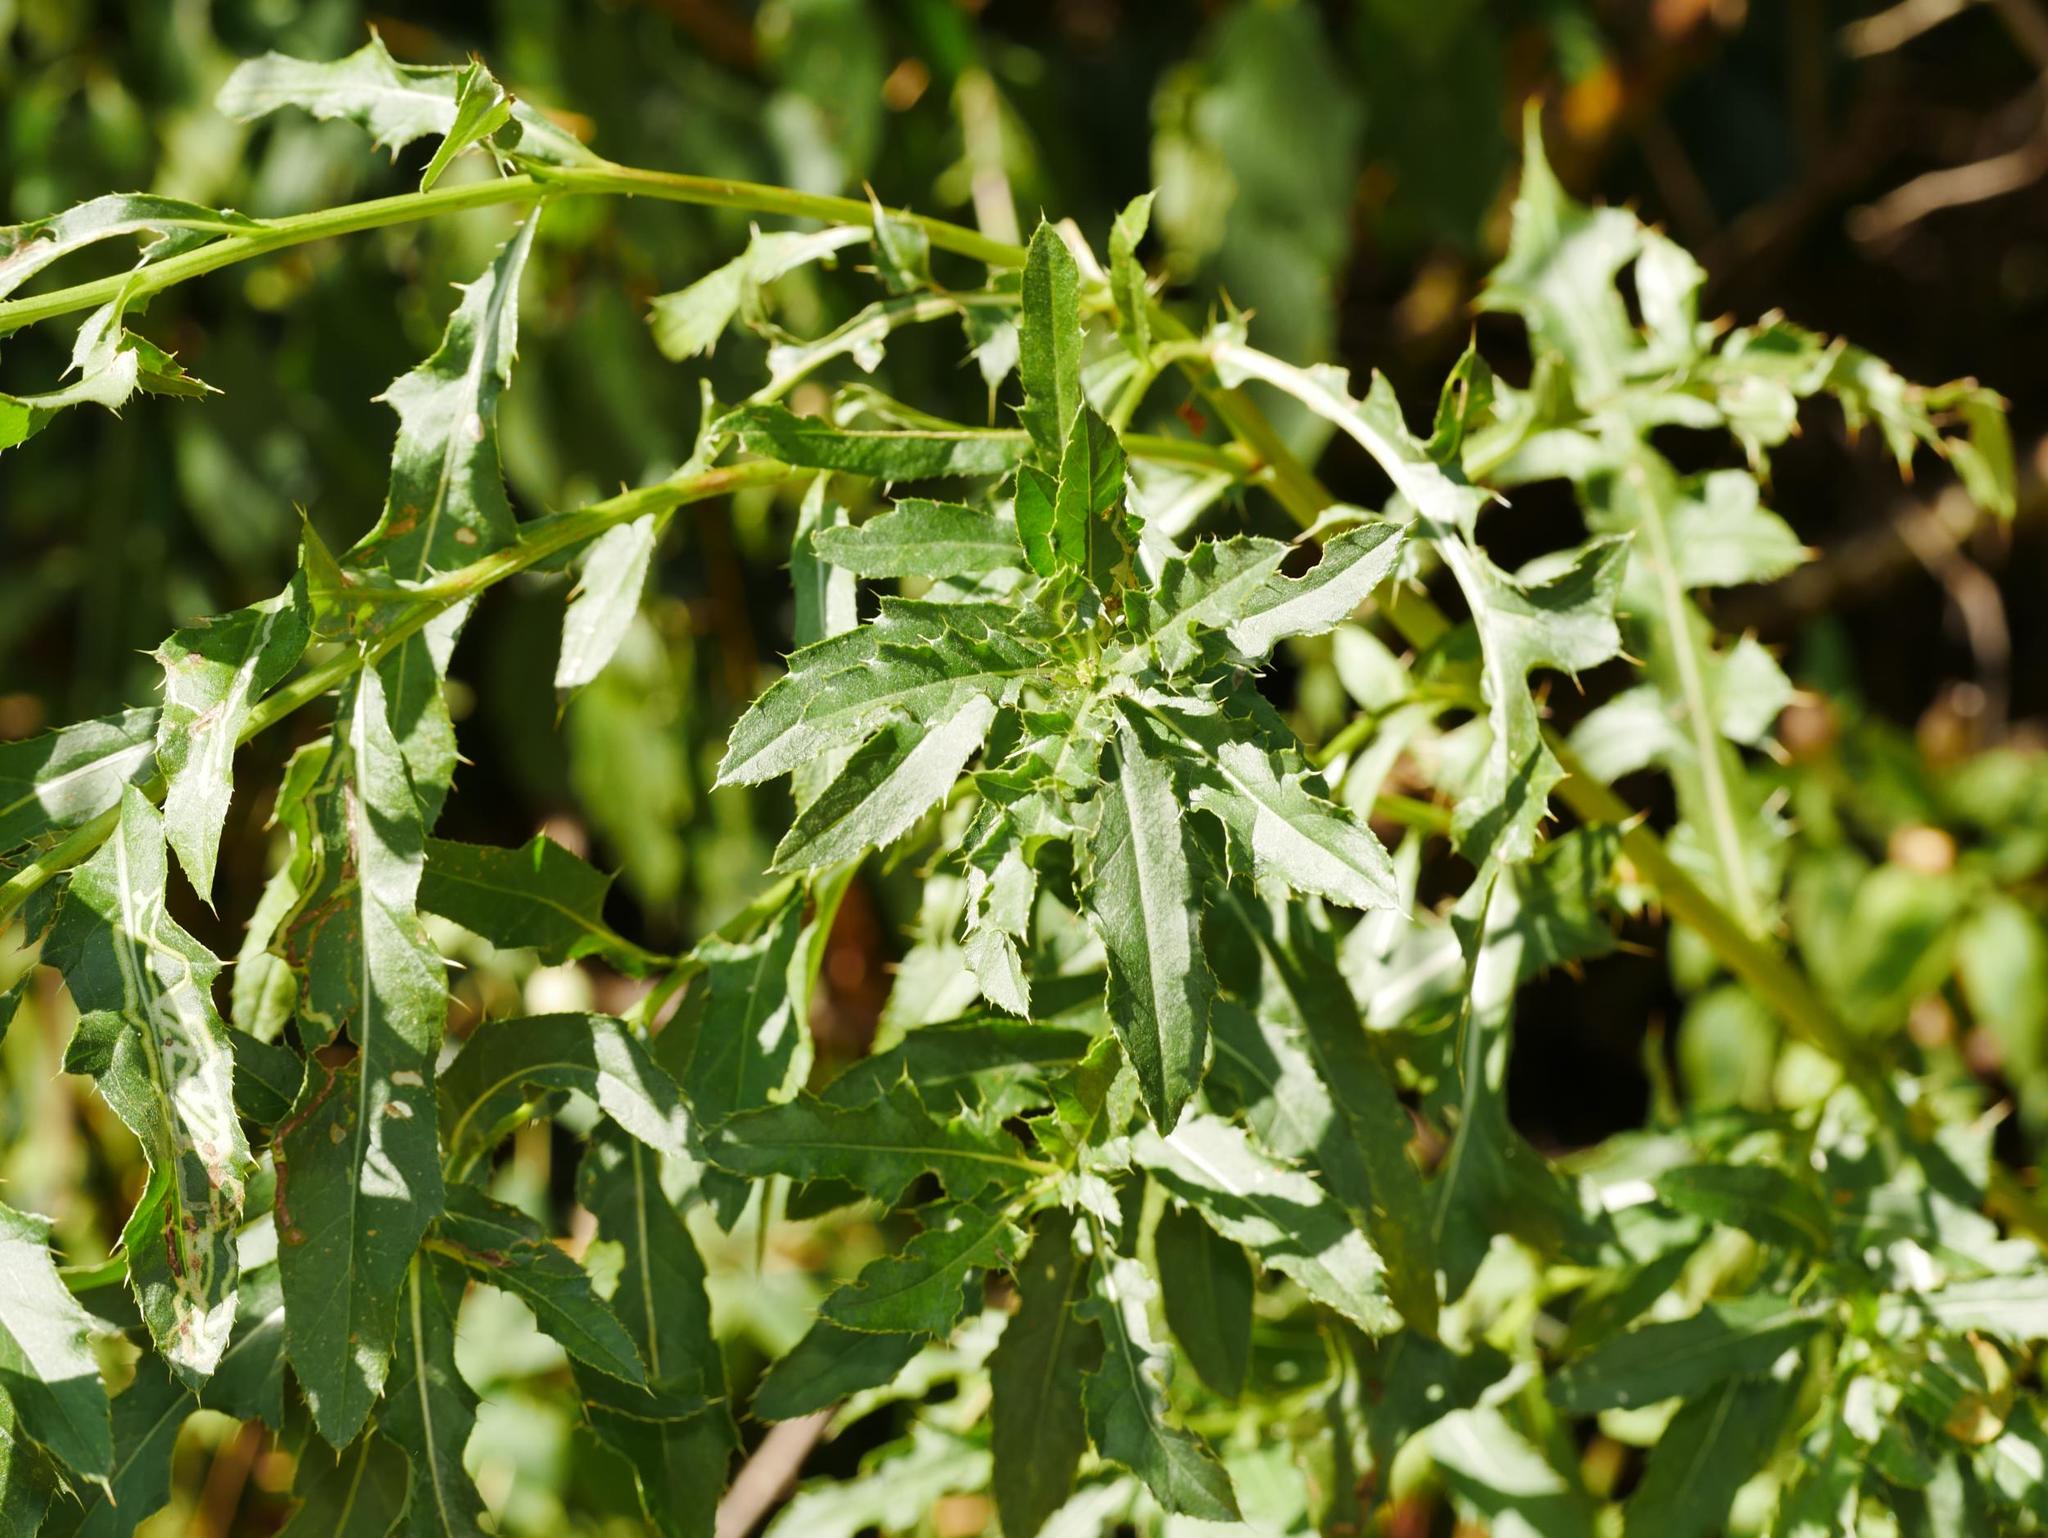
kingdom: Plantae
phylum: Tracheophyta
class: Magnoliopsida
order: Asterales
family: Asteraceae
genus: Cirsium
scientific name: Cirsium arvense
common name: Creeping thistle
